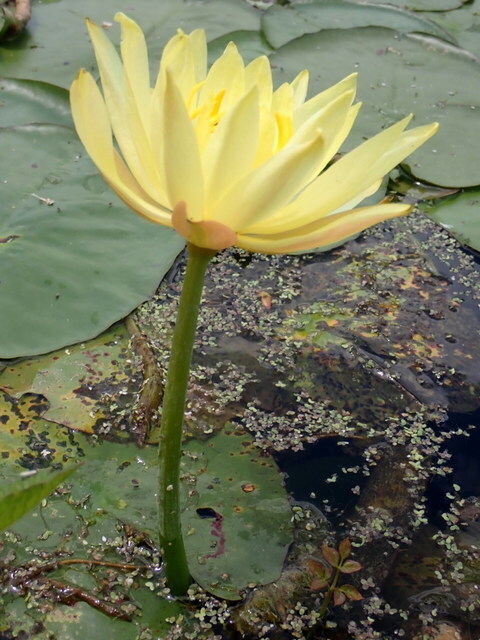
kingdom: Plantae
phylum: Tracheophyta
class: Magnoliopsida
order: Nymphaeales
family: Nymphaeaceae
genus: Nymphaea
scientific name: Nymphaea mexicana
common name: Banana water-lily
